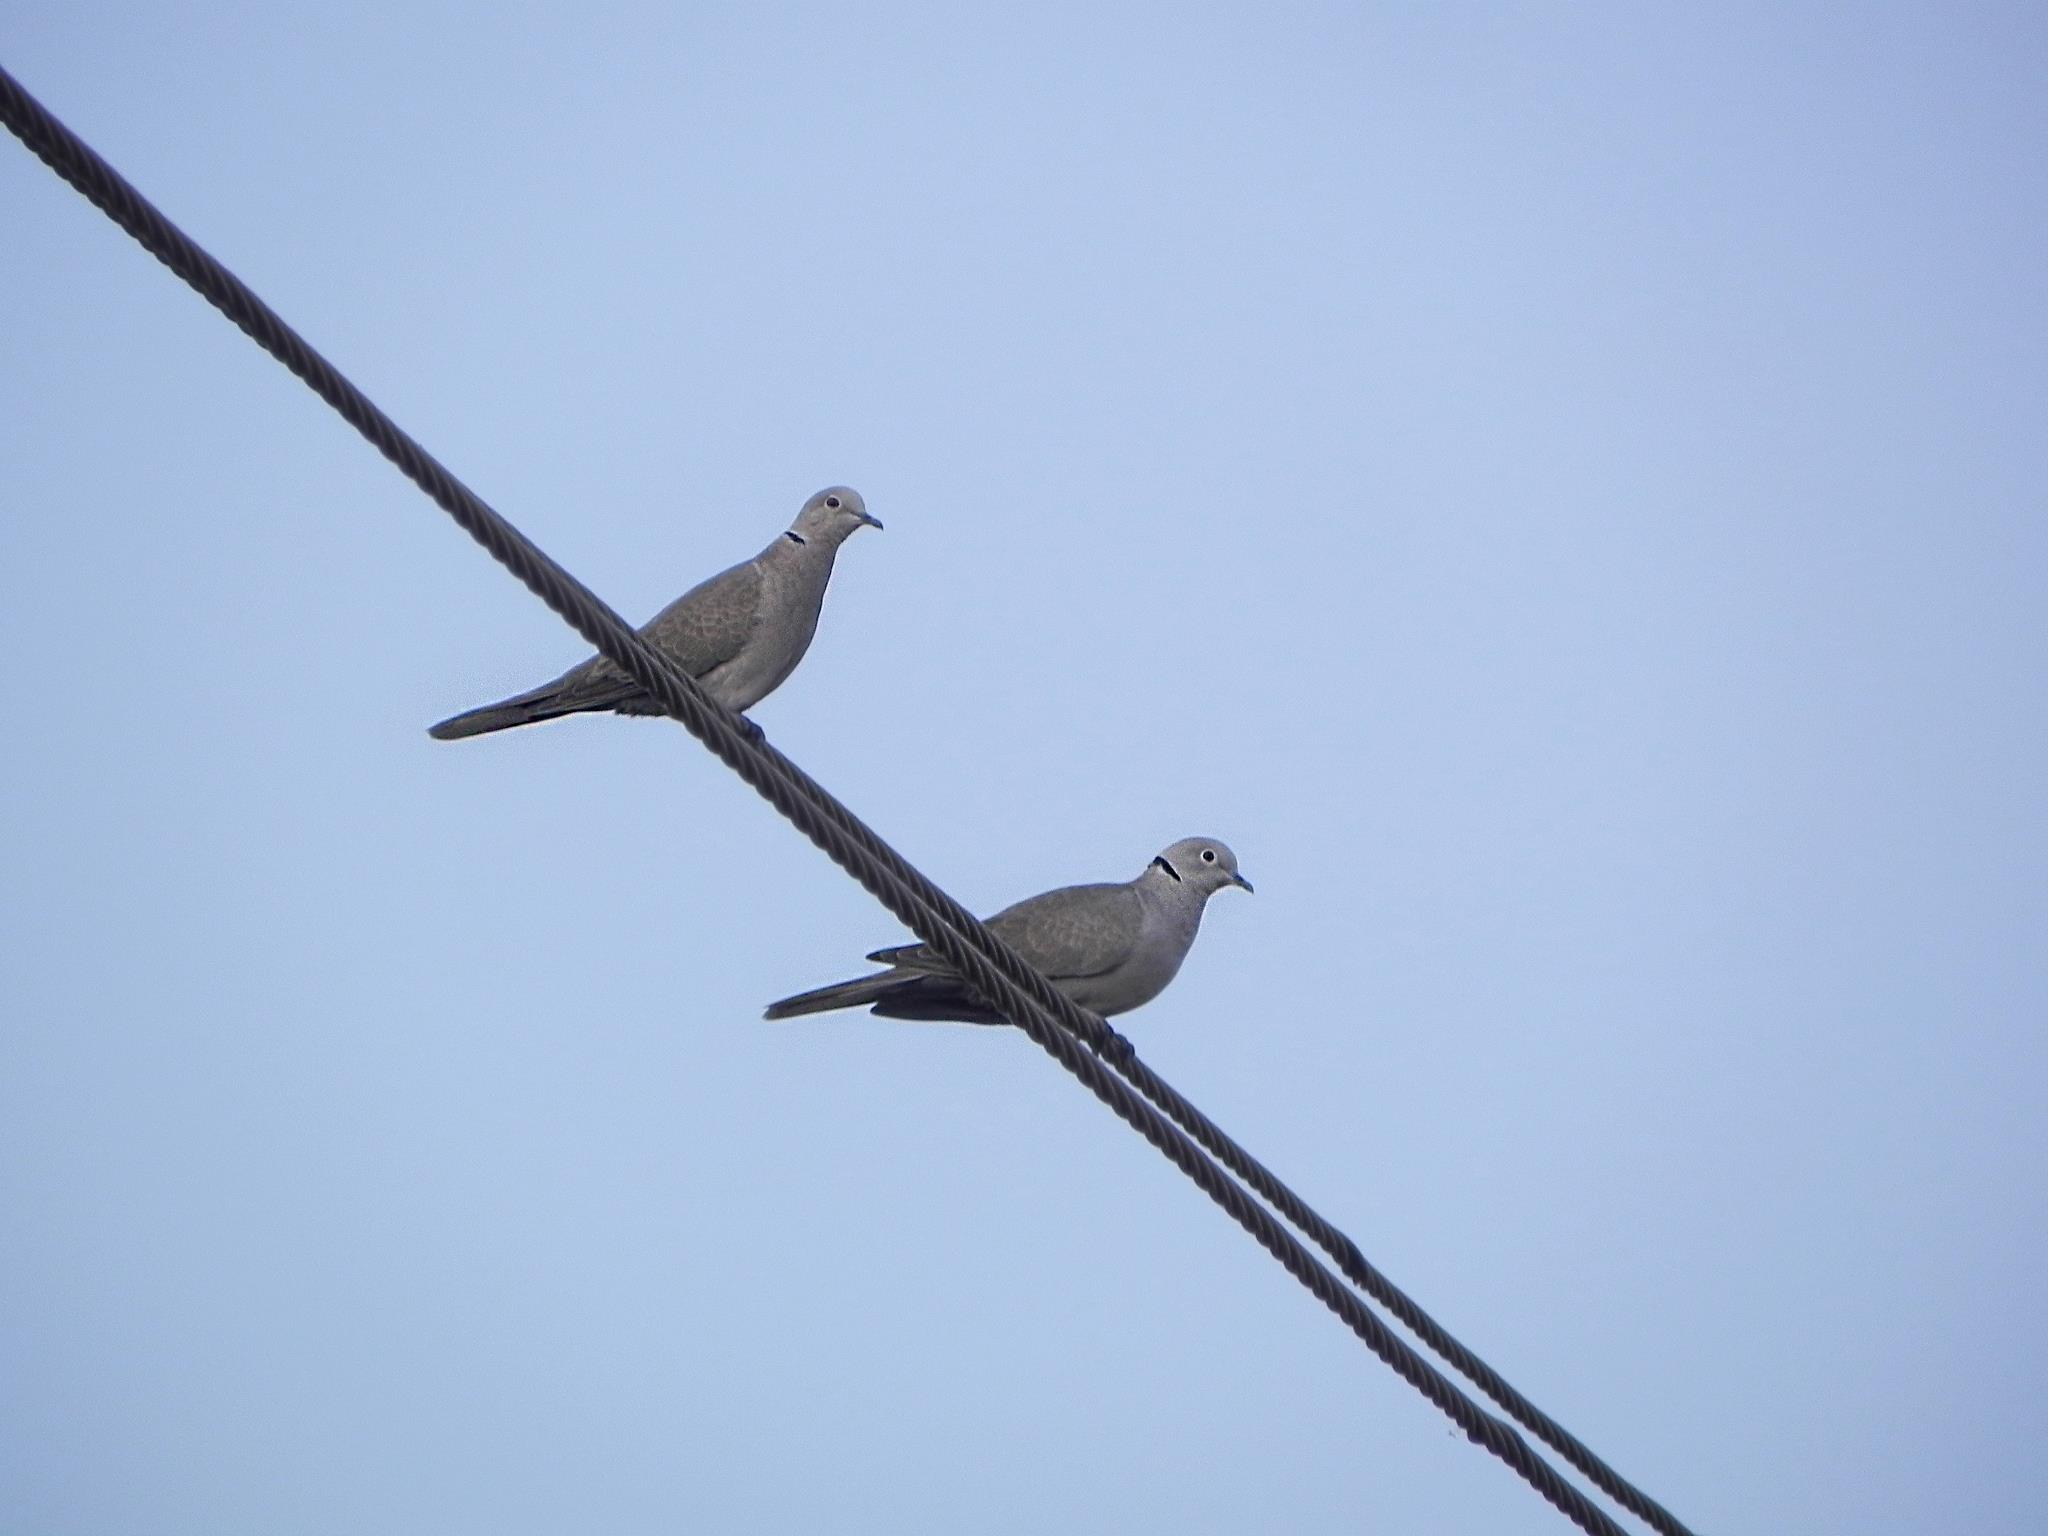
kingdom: Animalia
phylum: Chordata
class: Aves
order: Columbiformes
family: Columbidae
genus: Streptopelia
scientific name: Streptopelia decaocto
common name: Eurasian collared dove
